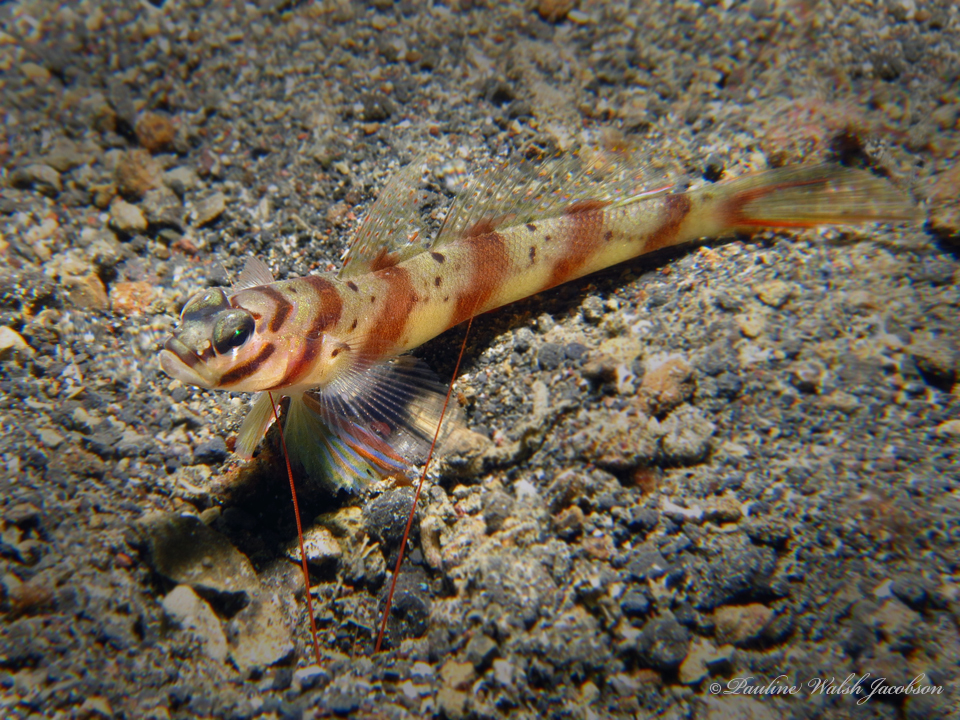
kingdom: Animalia
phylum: Chordata
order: Perciformes
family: Gobiidae
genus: Amblyeleotris
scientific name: Amblyeleotris diagonalis
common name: Diagonal shrimp goby
